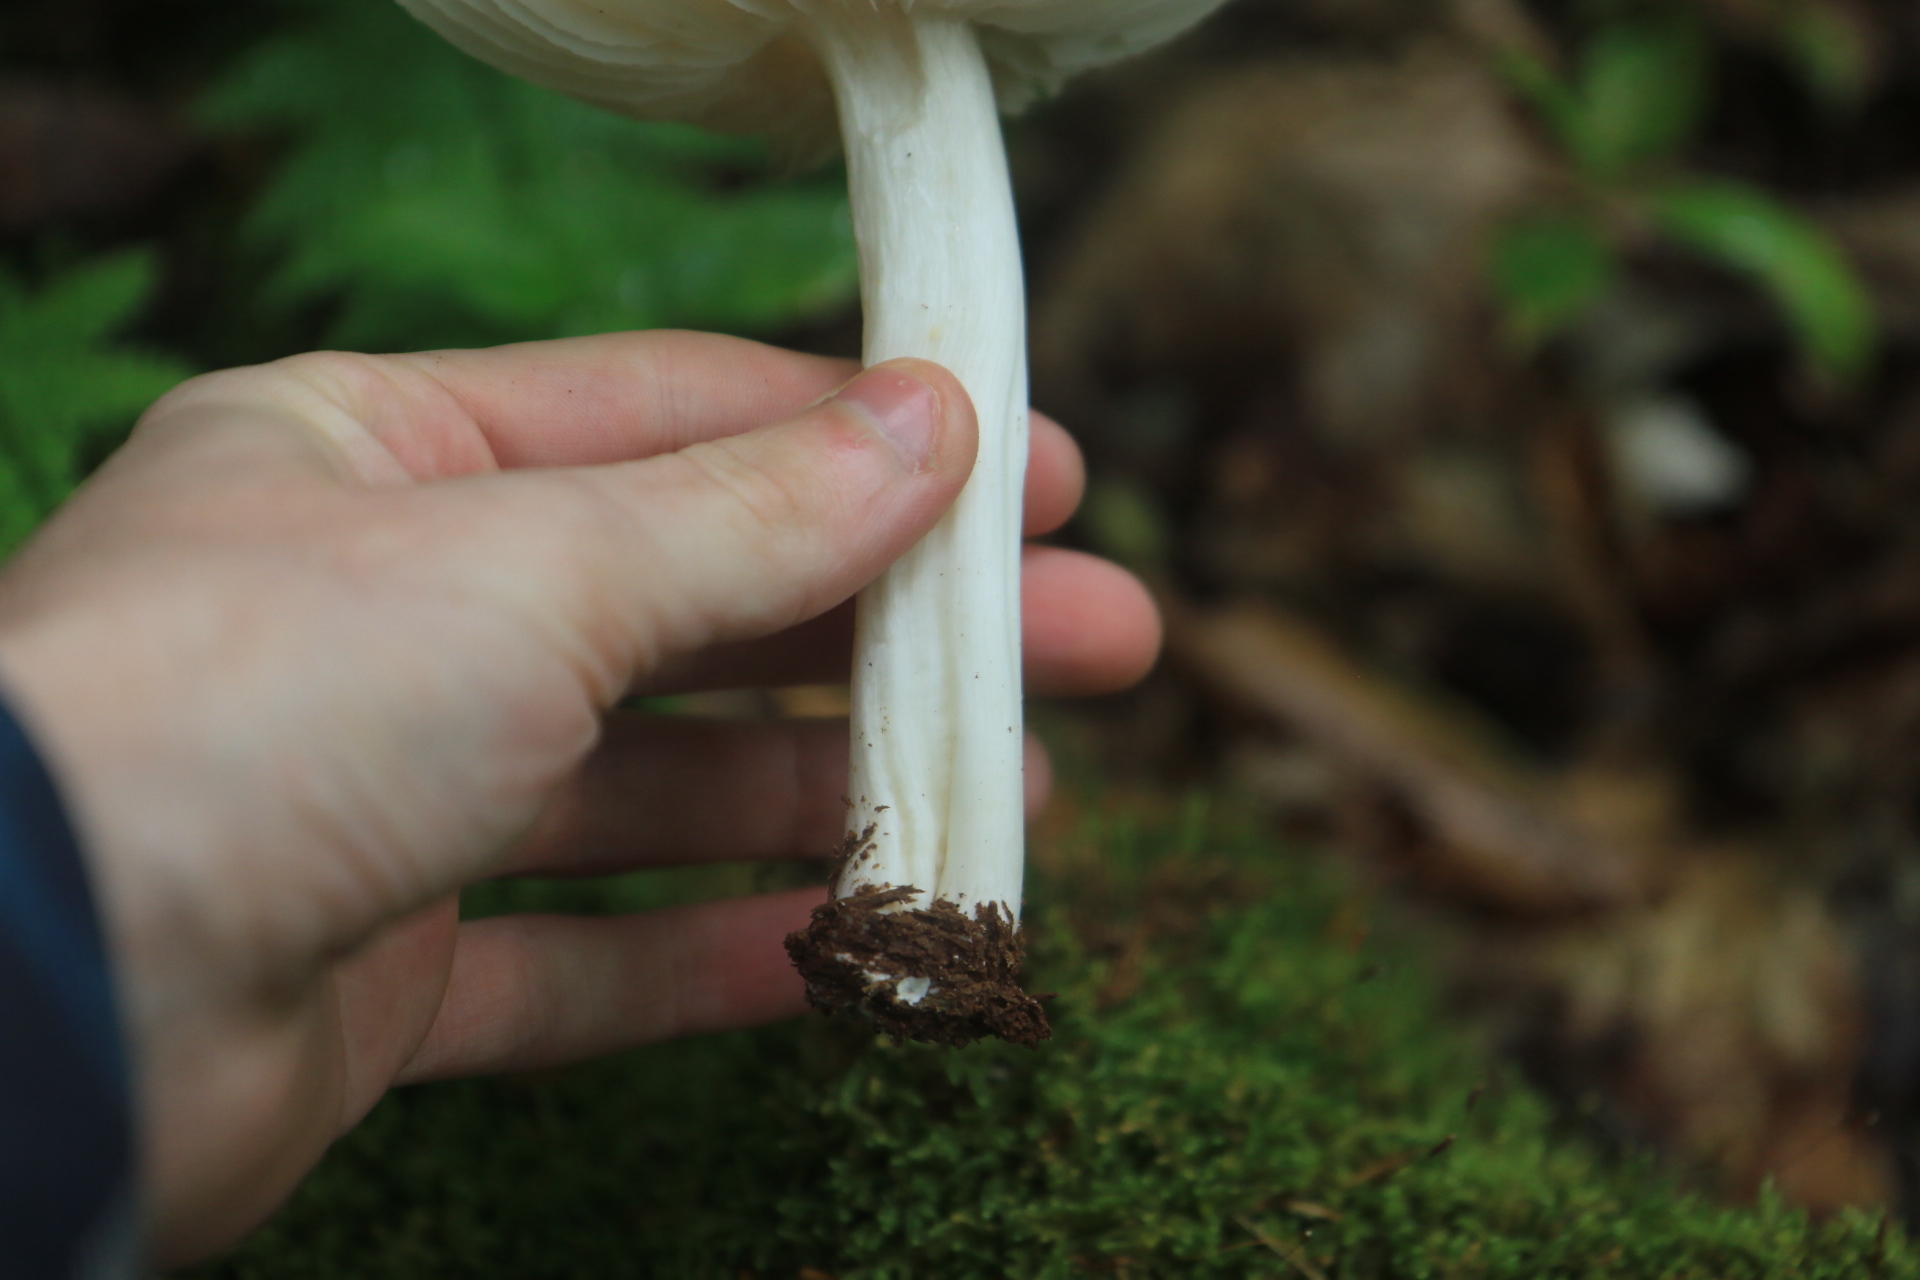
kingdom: Fungi
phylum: Basidiomycota
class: Agaricomycetes
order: Agaricales
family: Tricholomataceae
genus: Megacollybia
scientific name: Megacollybia rodmanii
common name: Eastern american platterful mushroom
